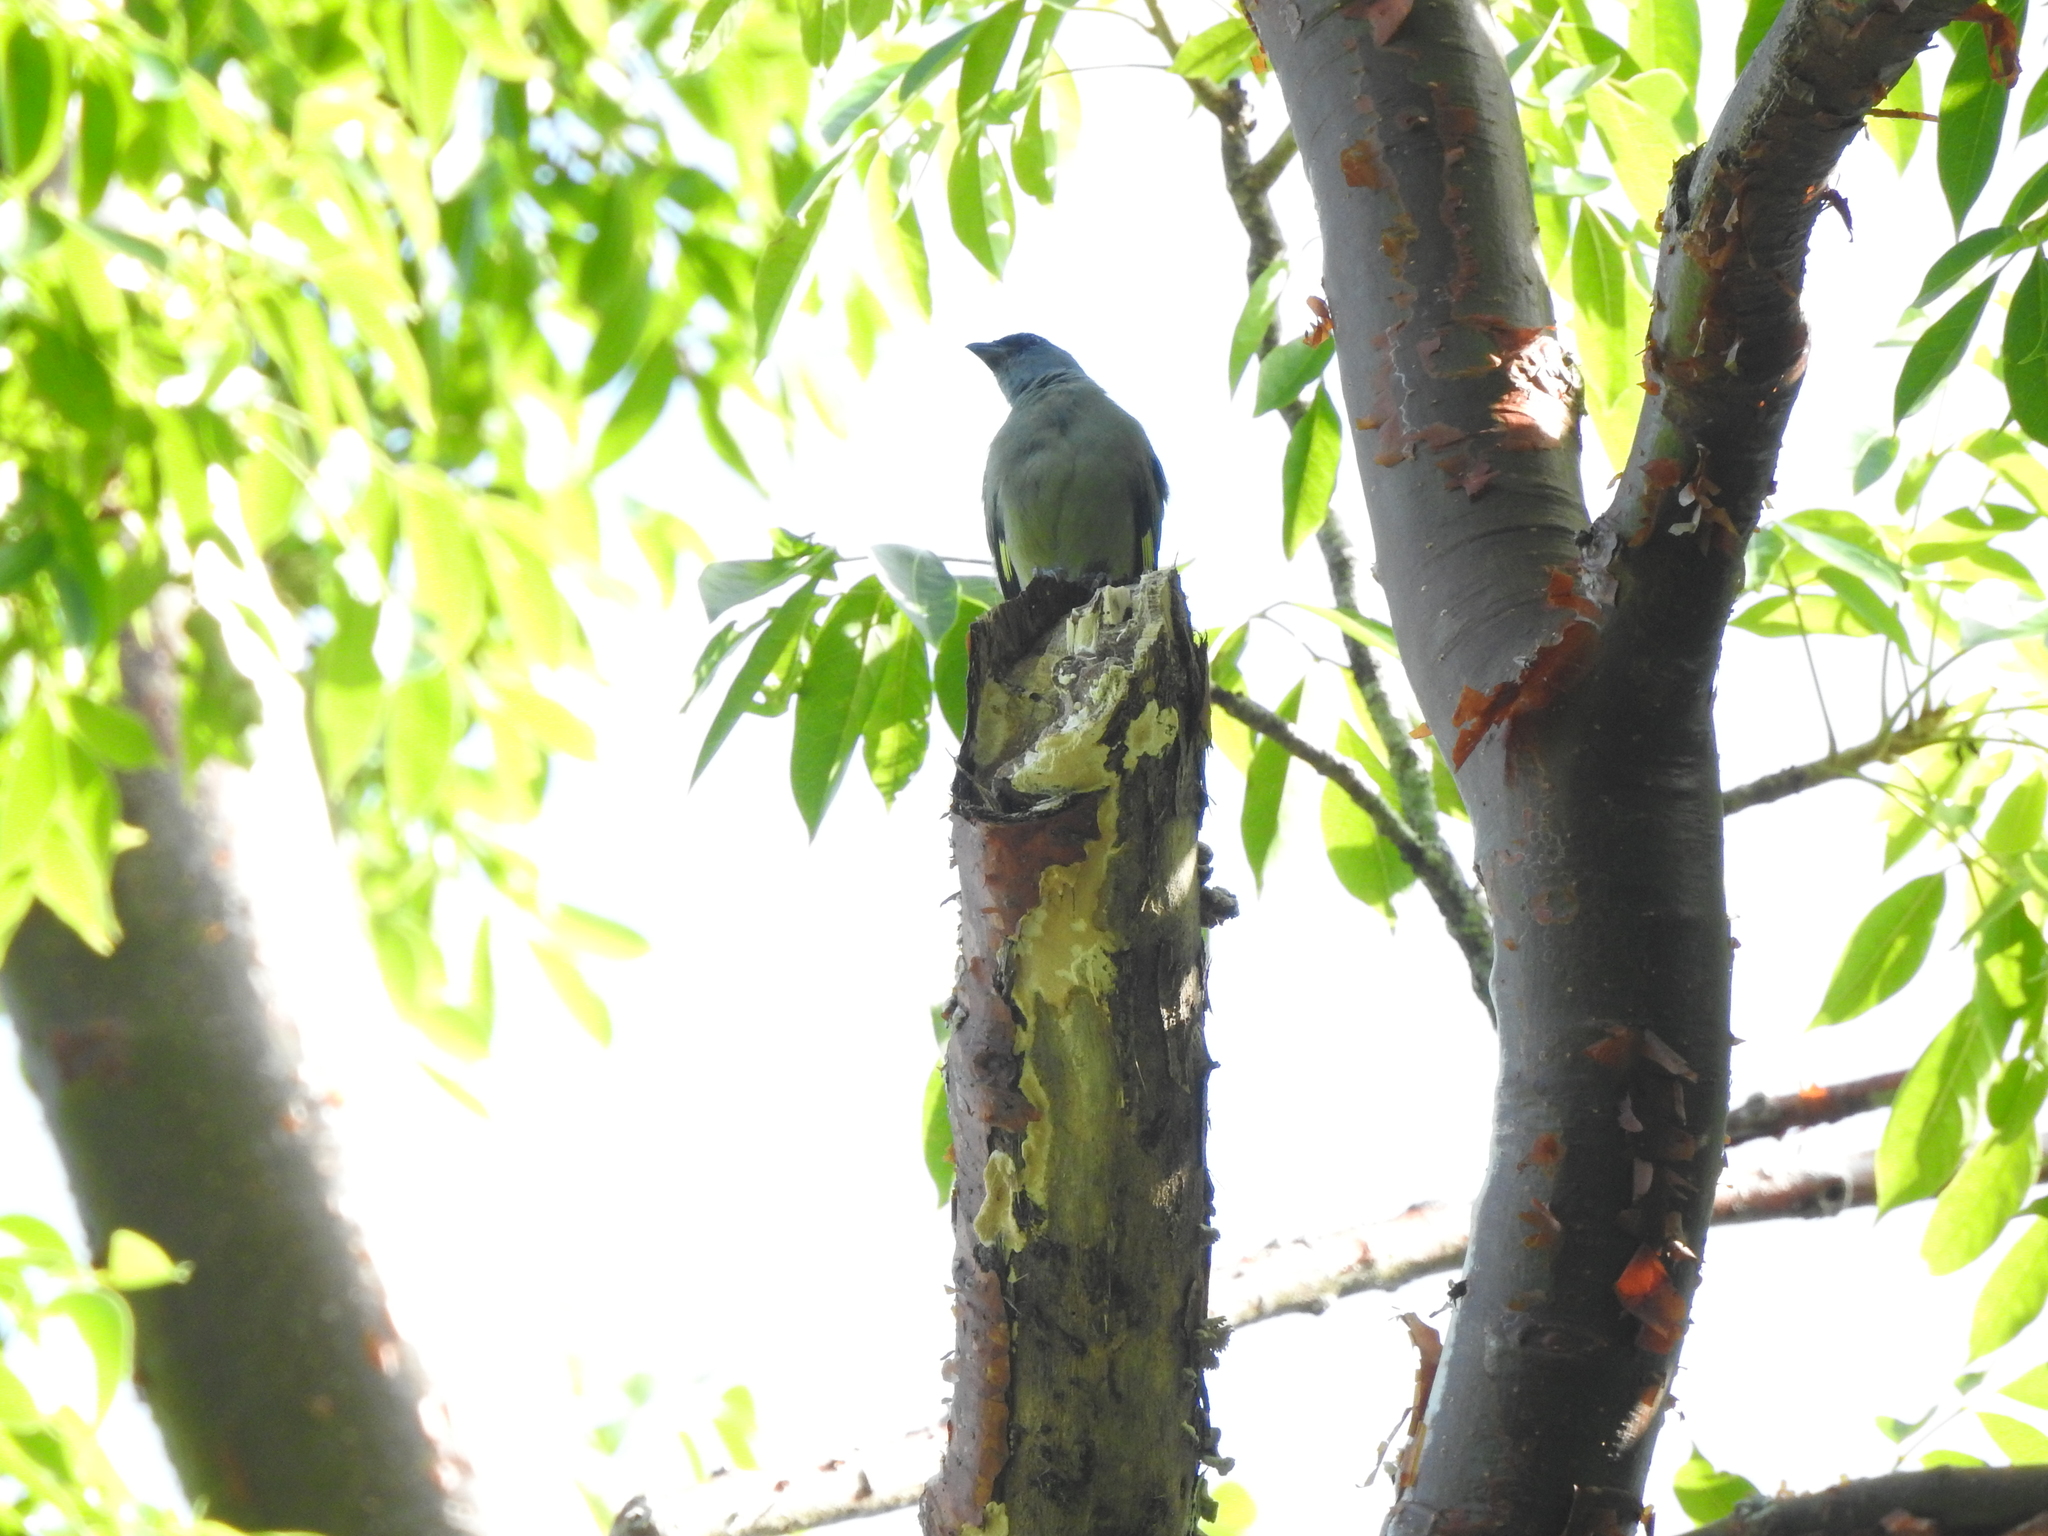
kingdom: Animalia
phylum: Chordata
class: Aves
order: Passeriformes
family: Thraupidae
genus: Thraupis
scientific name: Thraupis abbas
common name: Yellow-winged tanager
